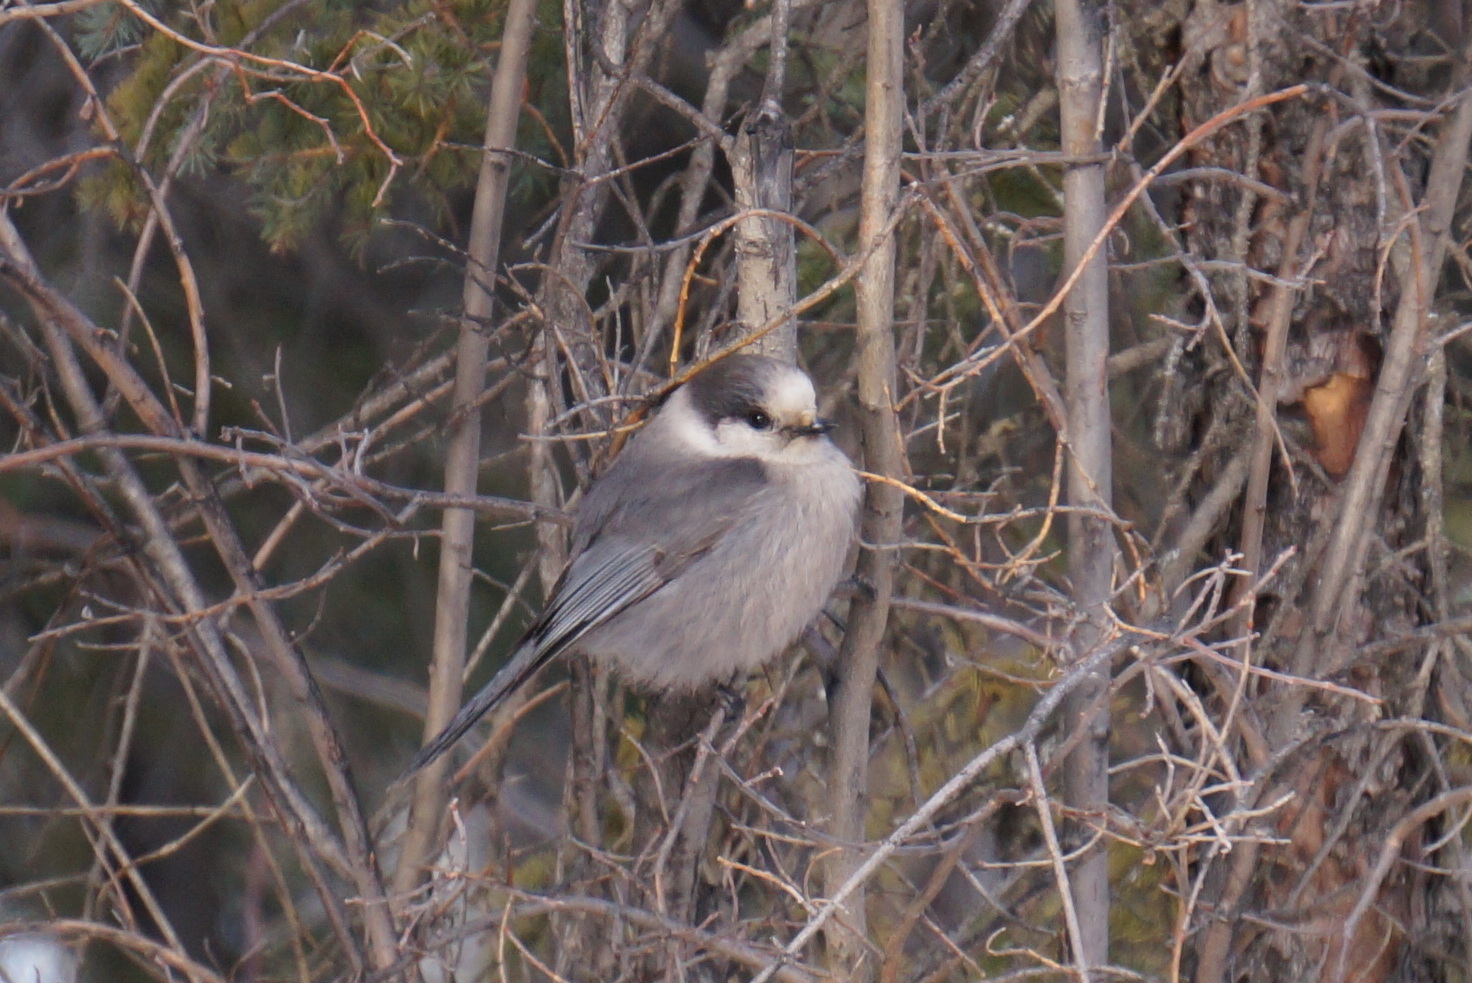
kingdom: Animalia
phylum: Chordata
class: Aves
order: Passeriformes
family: Corvidae
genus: Perisoreus
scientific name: Perisoreus canadensis
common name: Gray jay
